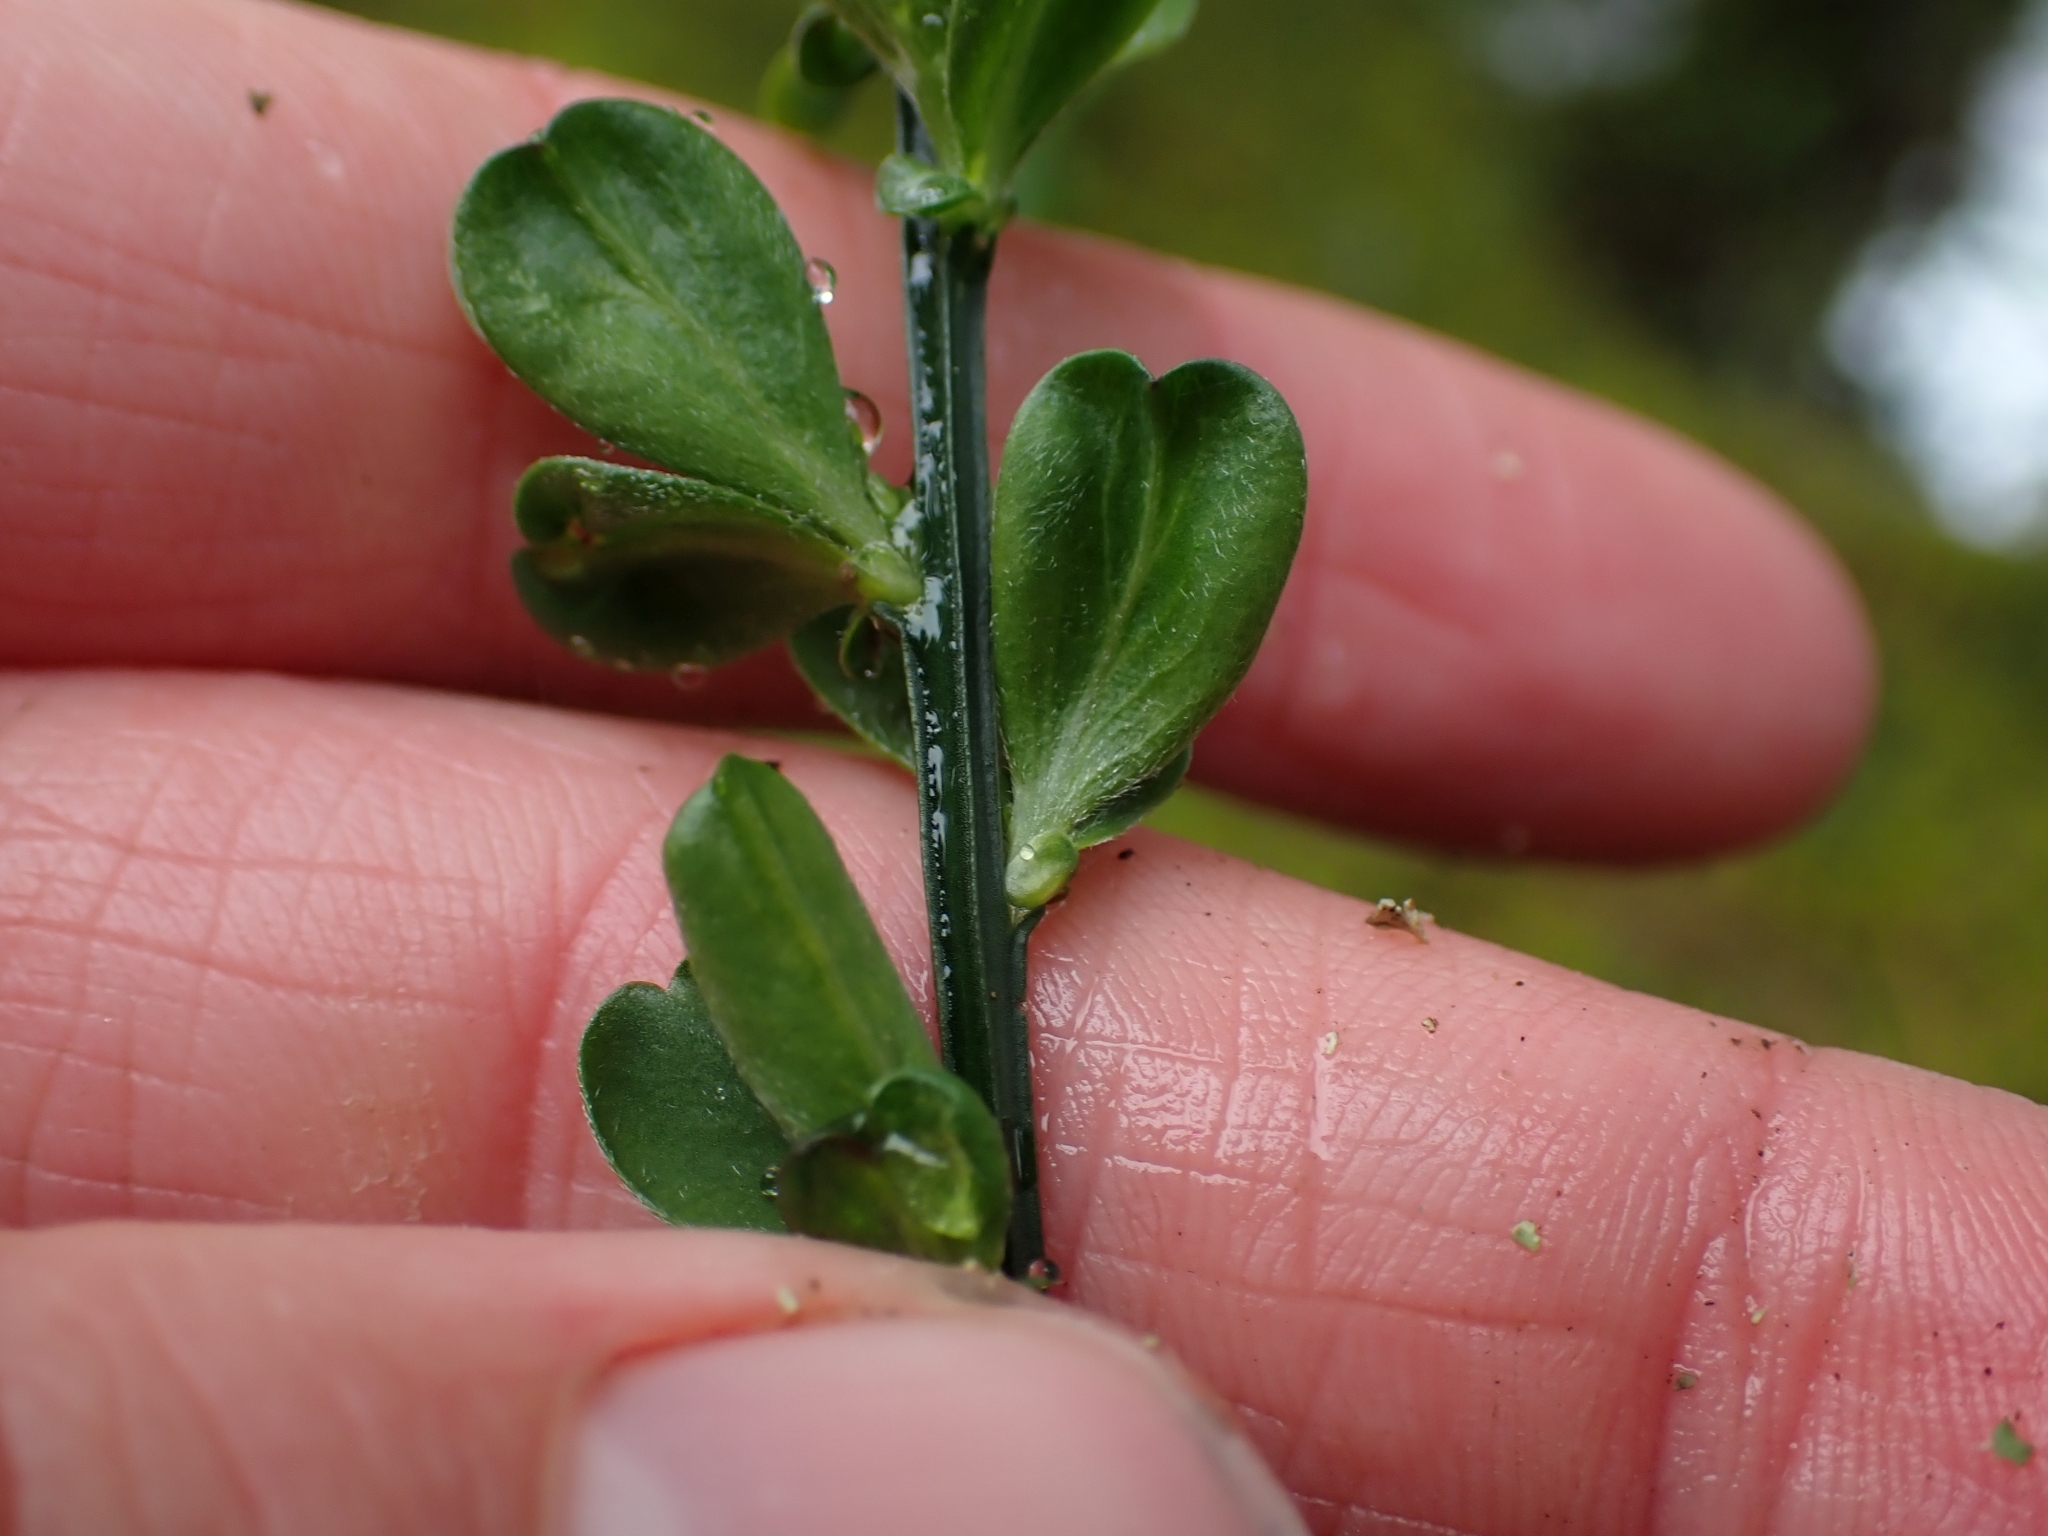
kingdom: Plantae
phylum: Tracheophyta
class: Magnoliopsida
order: Fabales
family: Fabaceae
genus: Cytisus
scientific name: Cytisus scoparius
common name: Scotch broom
